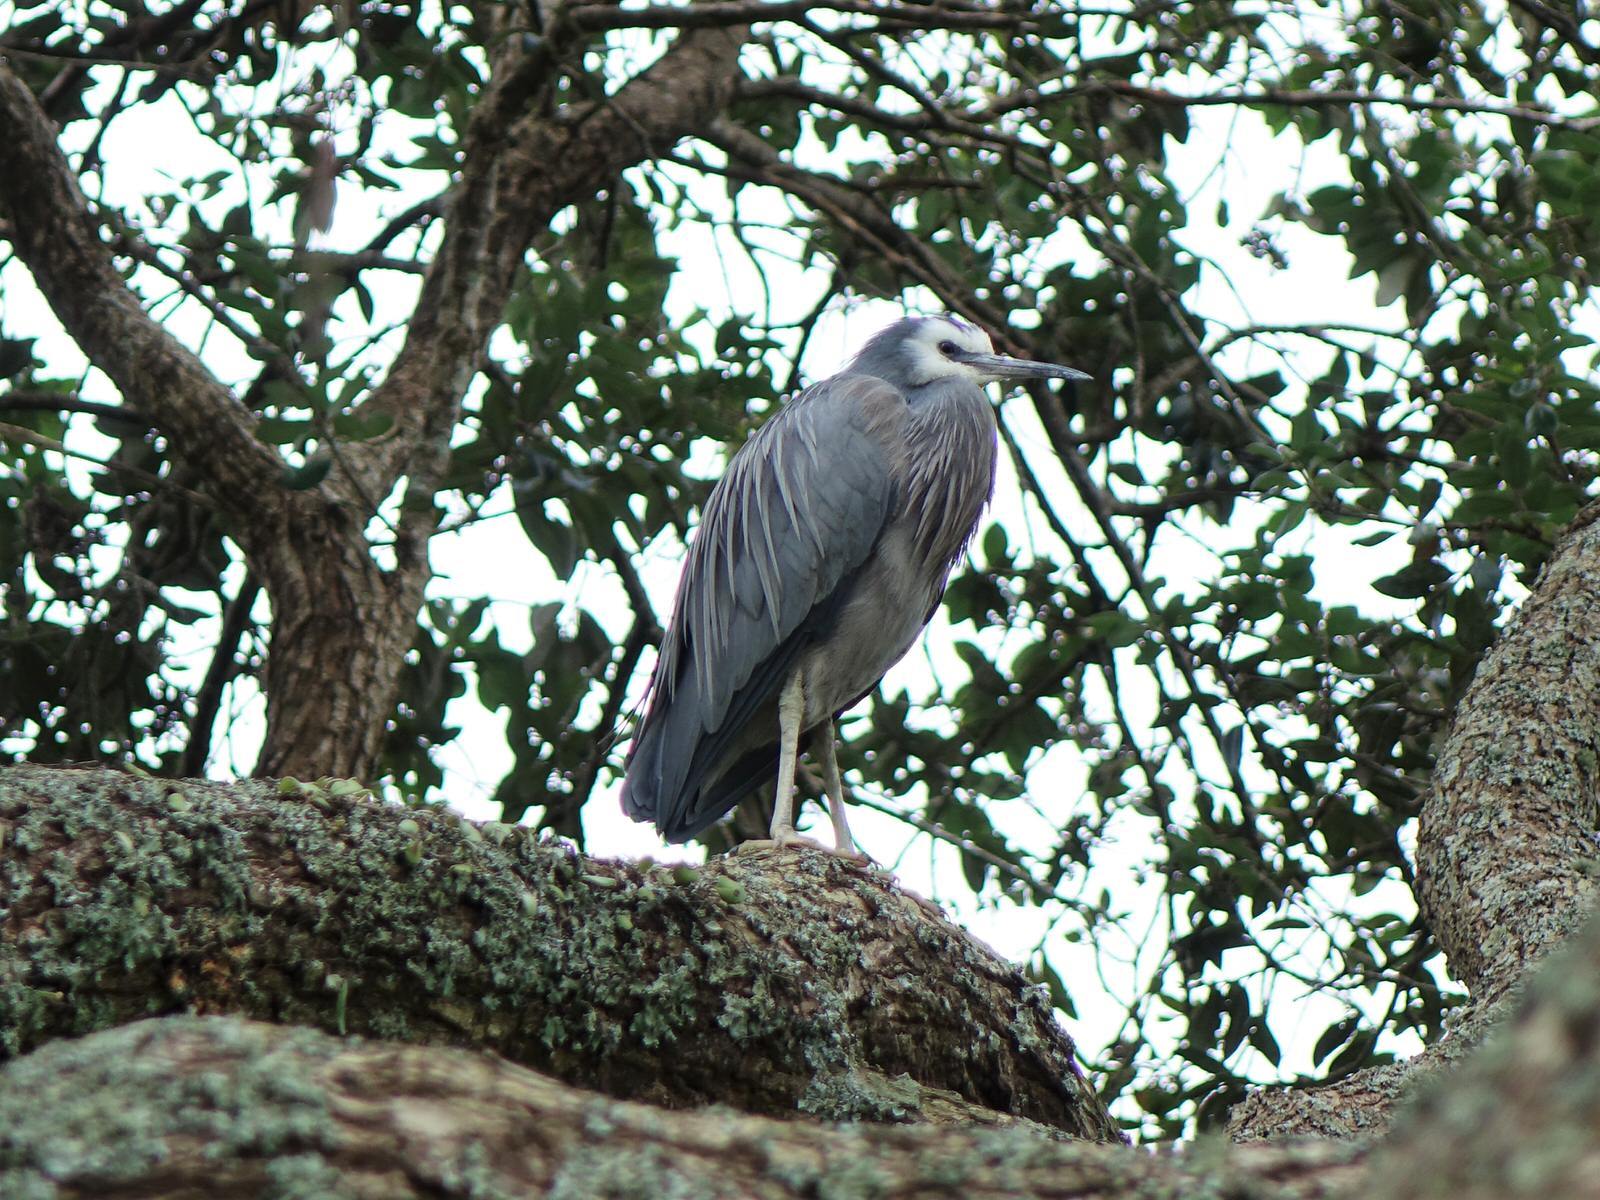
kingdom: Animalia
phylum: Chordata
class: Aves
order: Pelecaniformes
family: Ardeidae
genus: Egretta
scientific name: Egretta novaehollandiae
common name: White-faced heron
